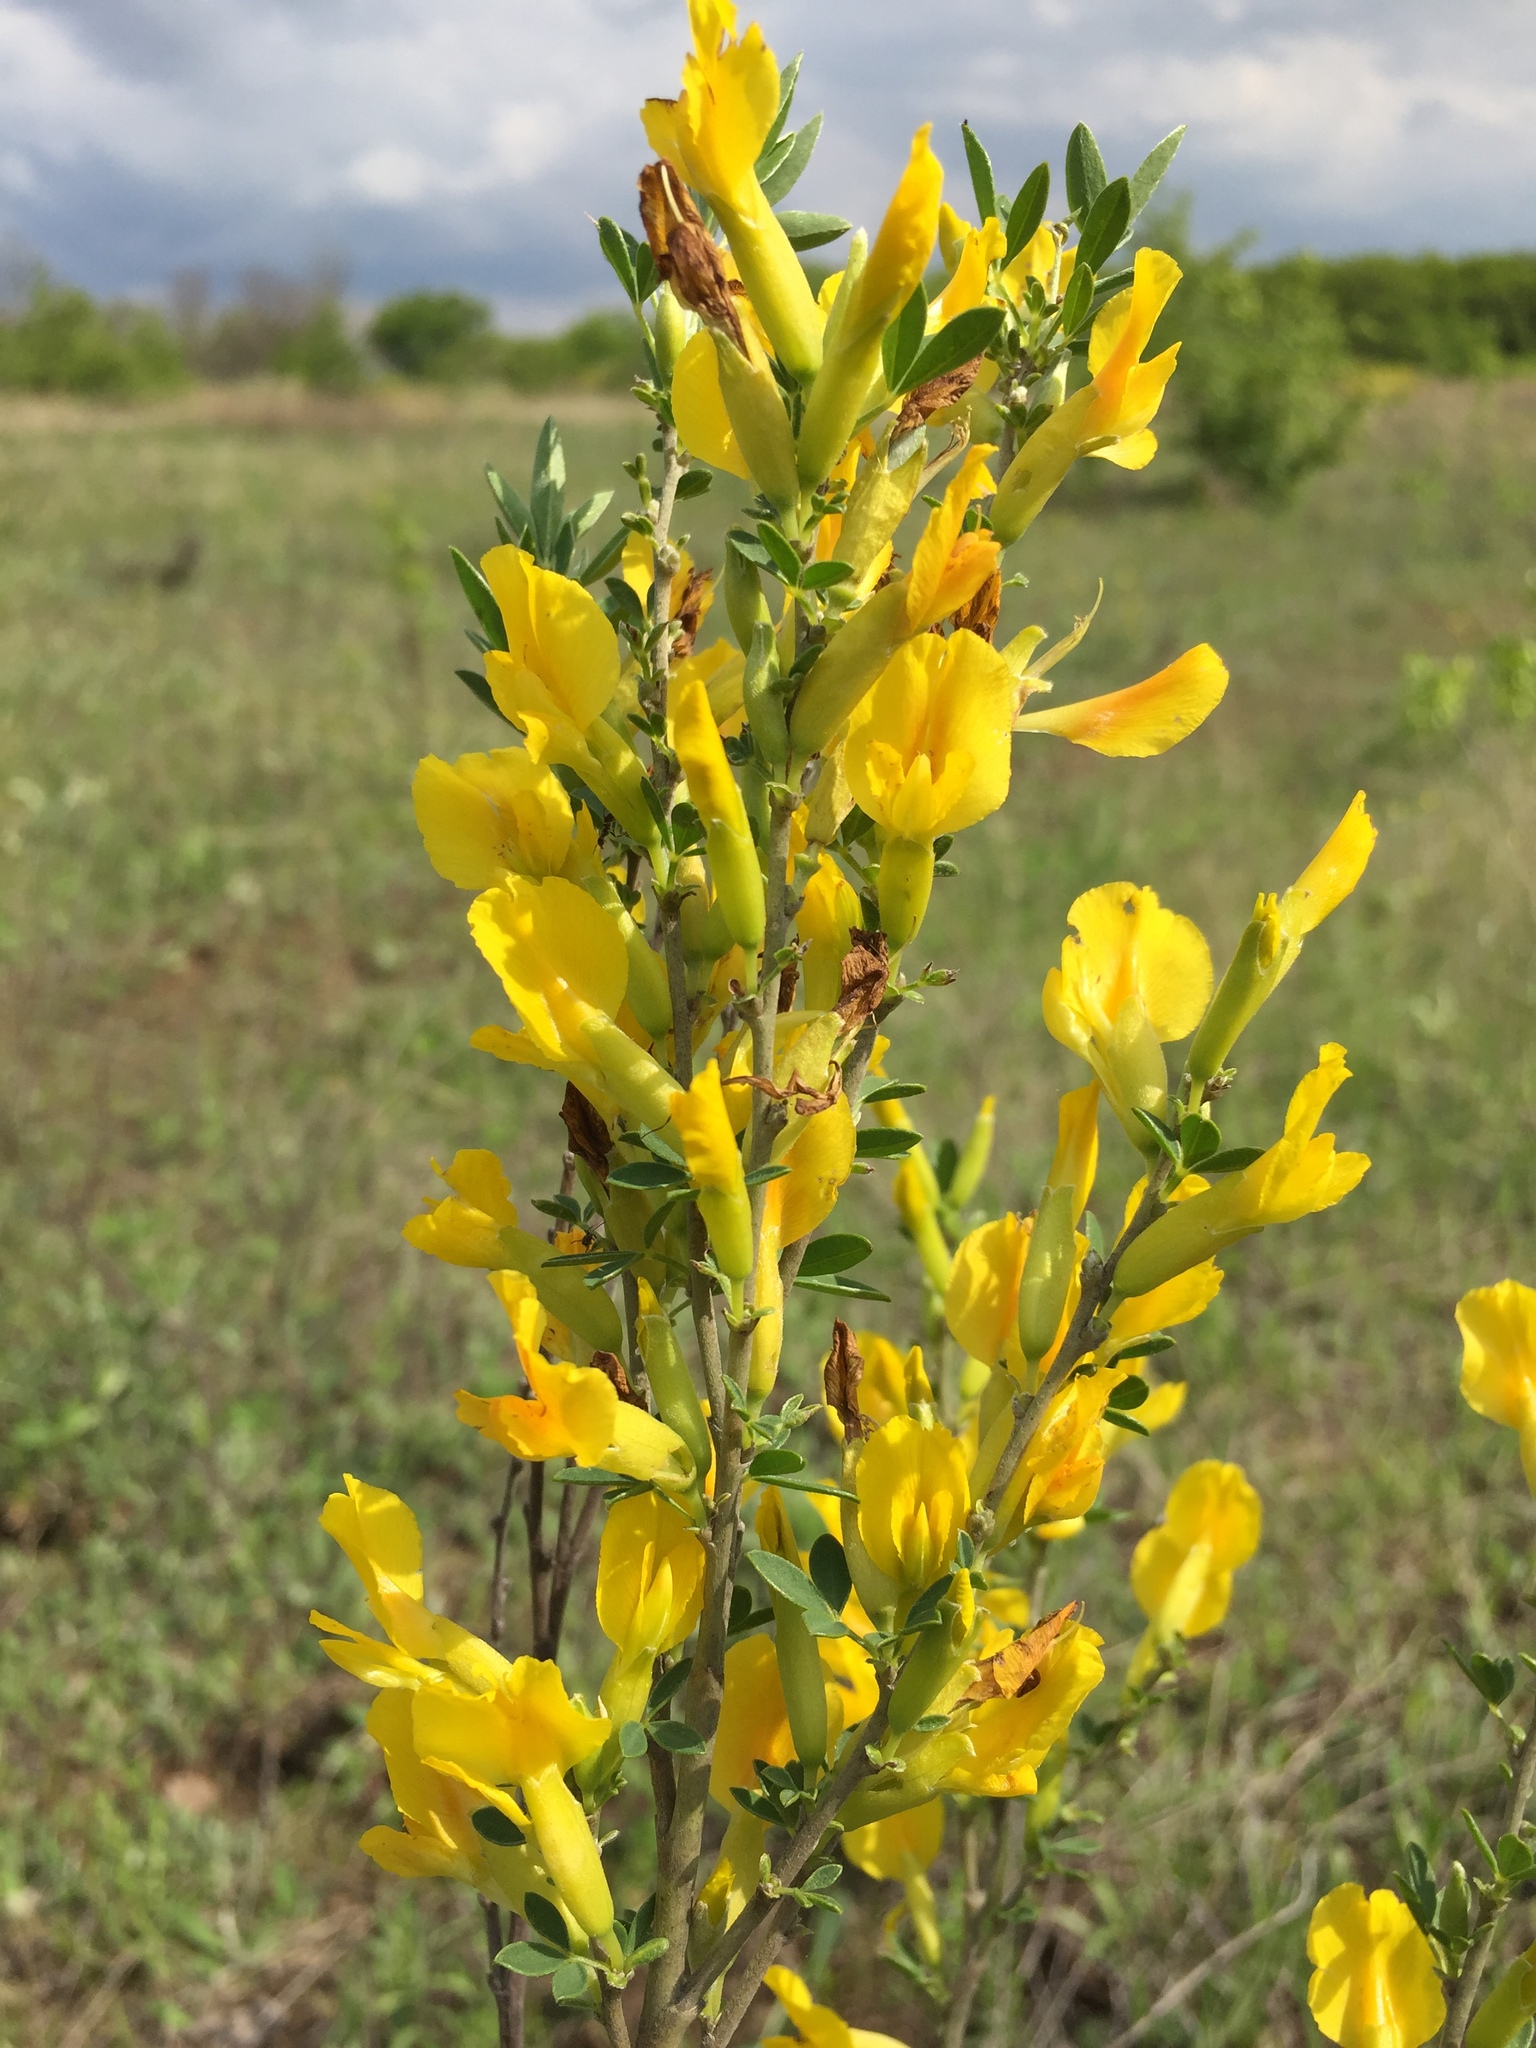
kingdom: Plantae
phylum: Tracheophyta
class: Magnoliopsida
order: Fabales
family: Fabaceae
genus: Chamaecytisus
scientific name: Chamaecytisus ruthenicus
